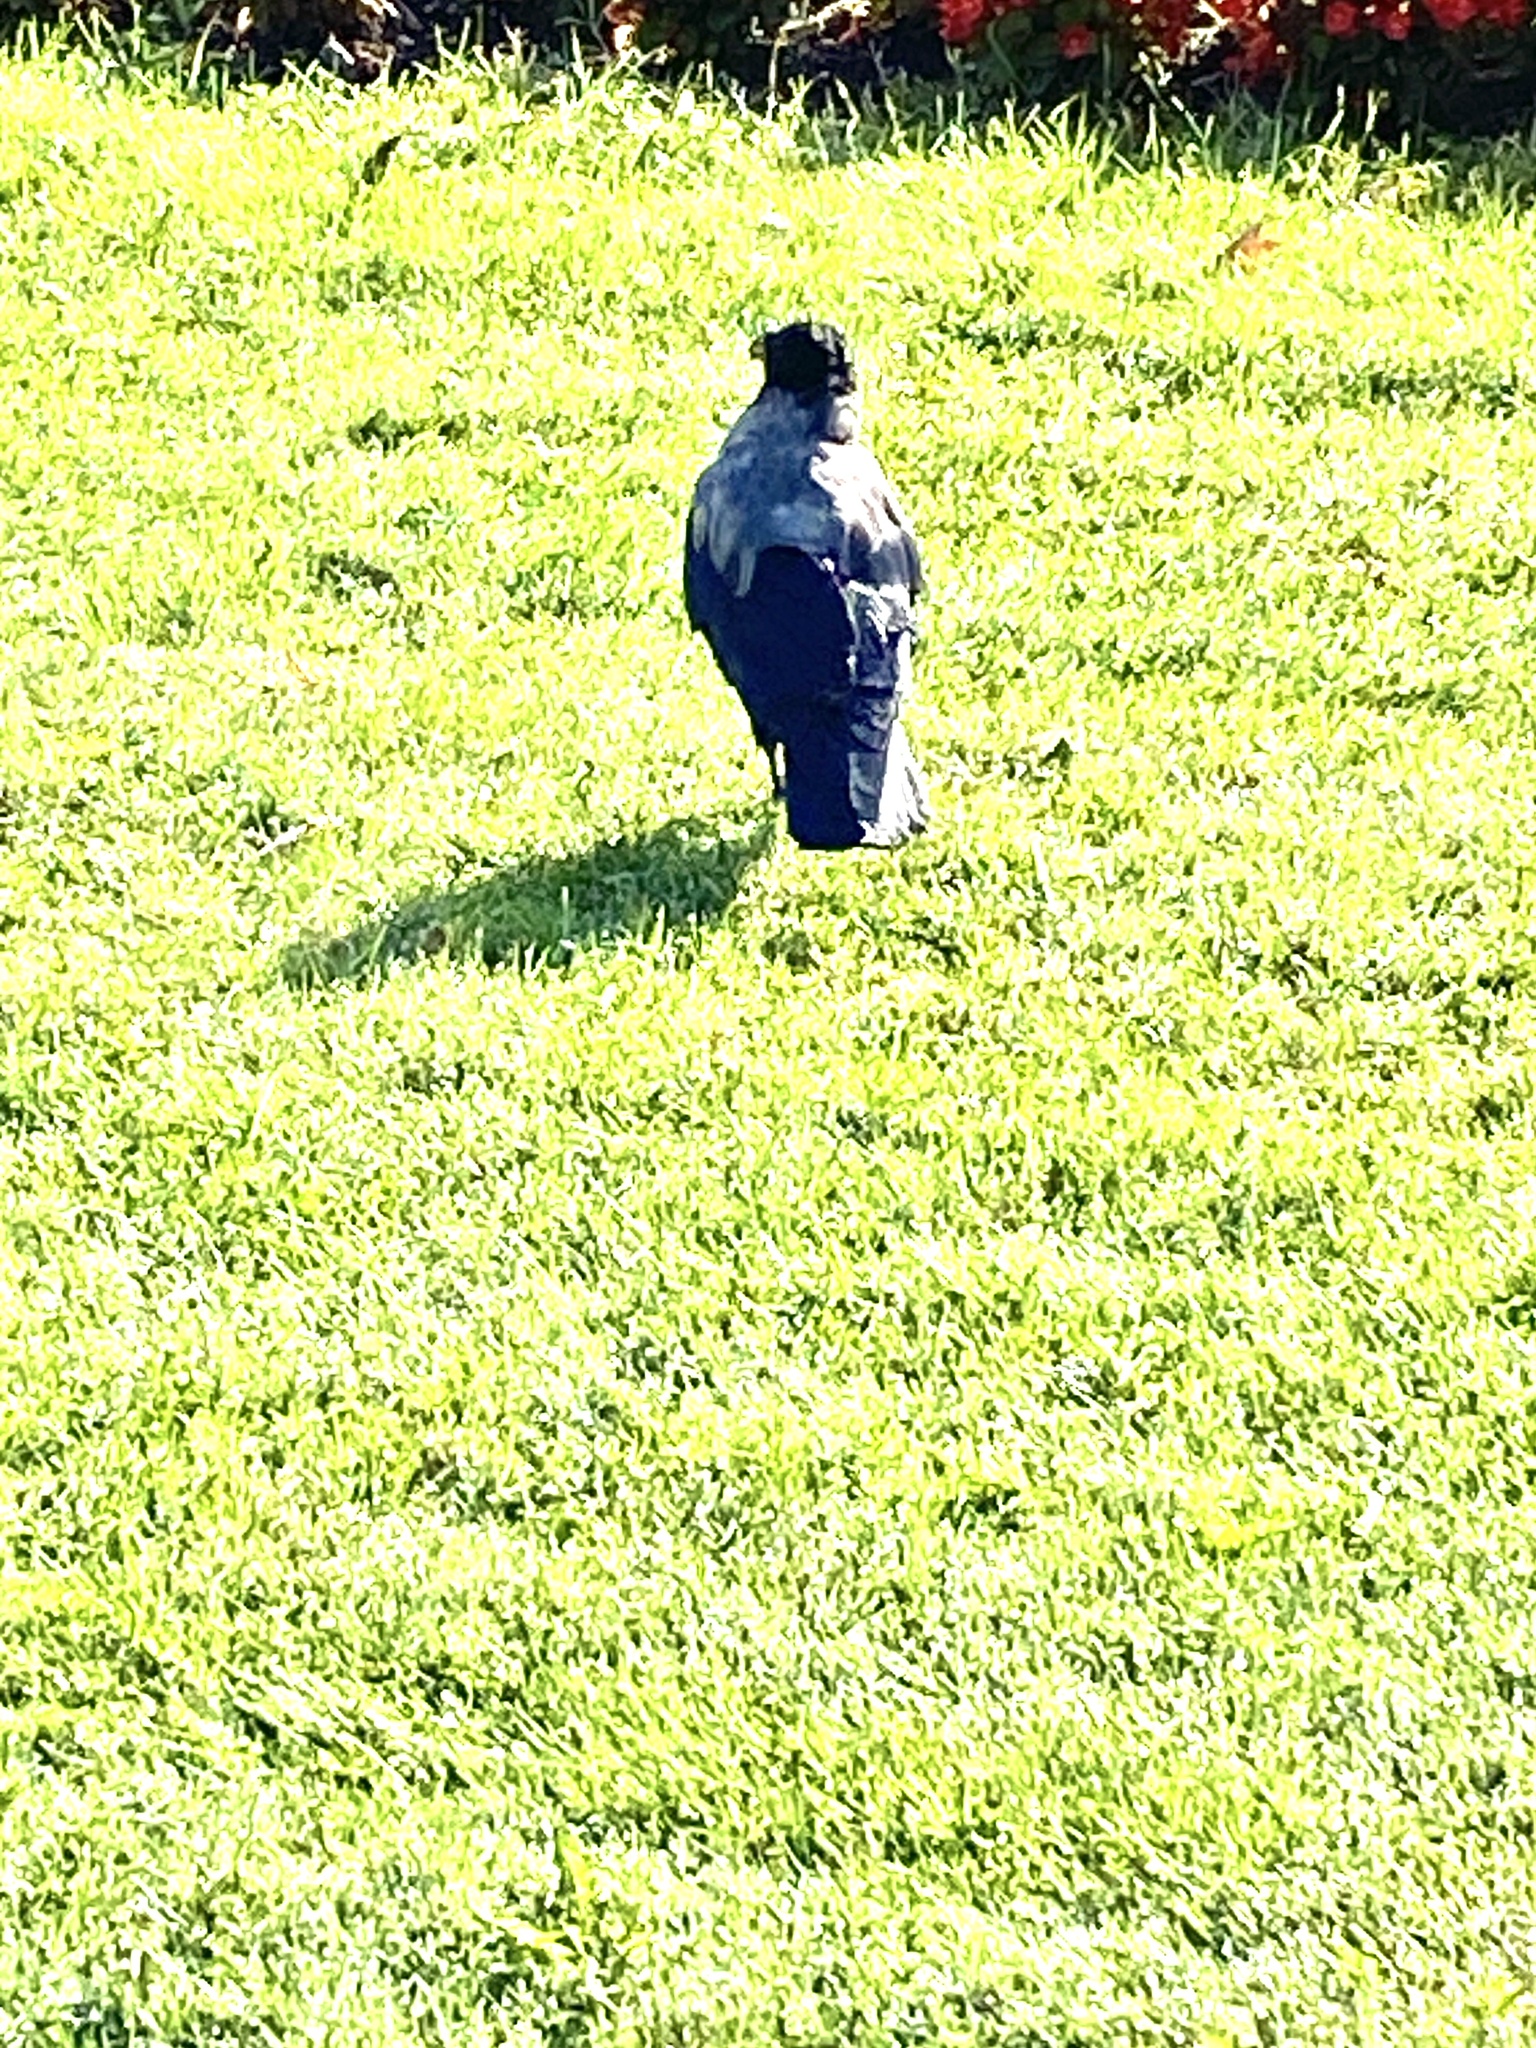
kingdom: Animalia
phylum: Chordata
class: Aves
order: Passeriformes
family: Corvidae
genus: Corvus
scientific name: Corvus cornix
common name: Hooded crow
